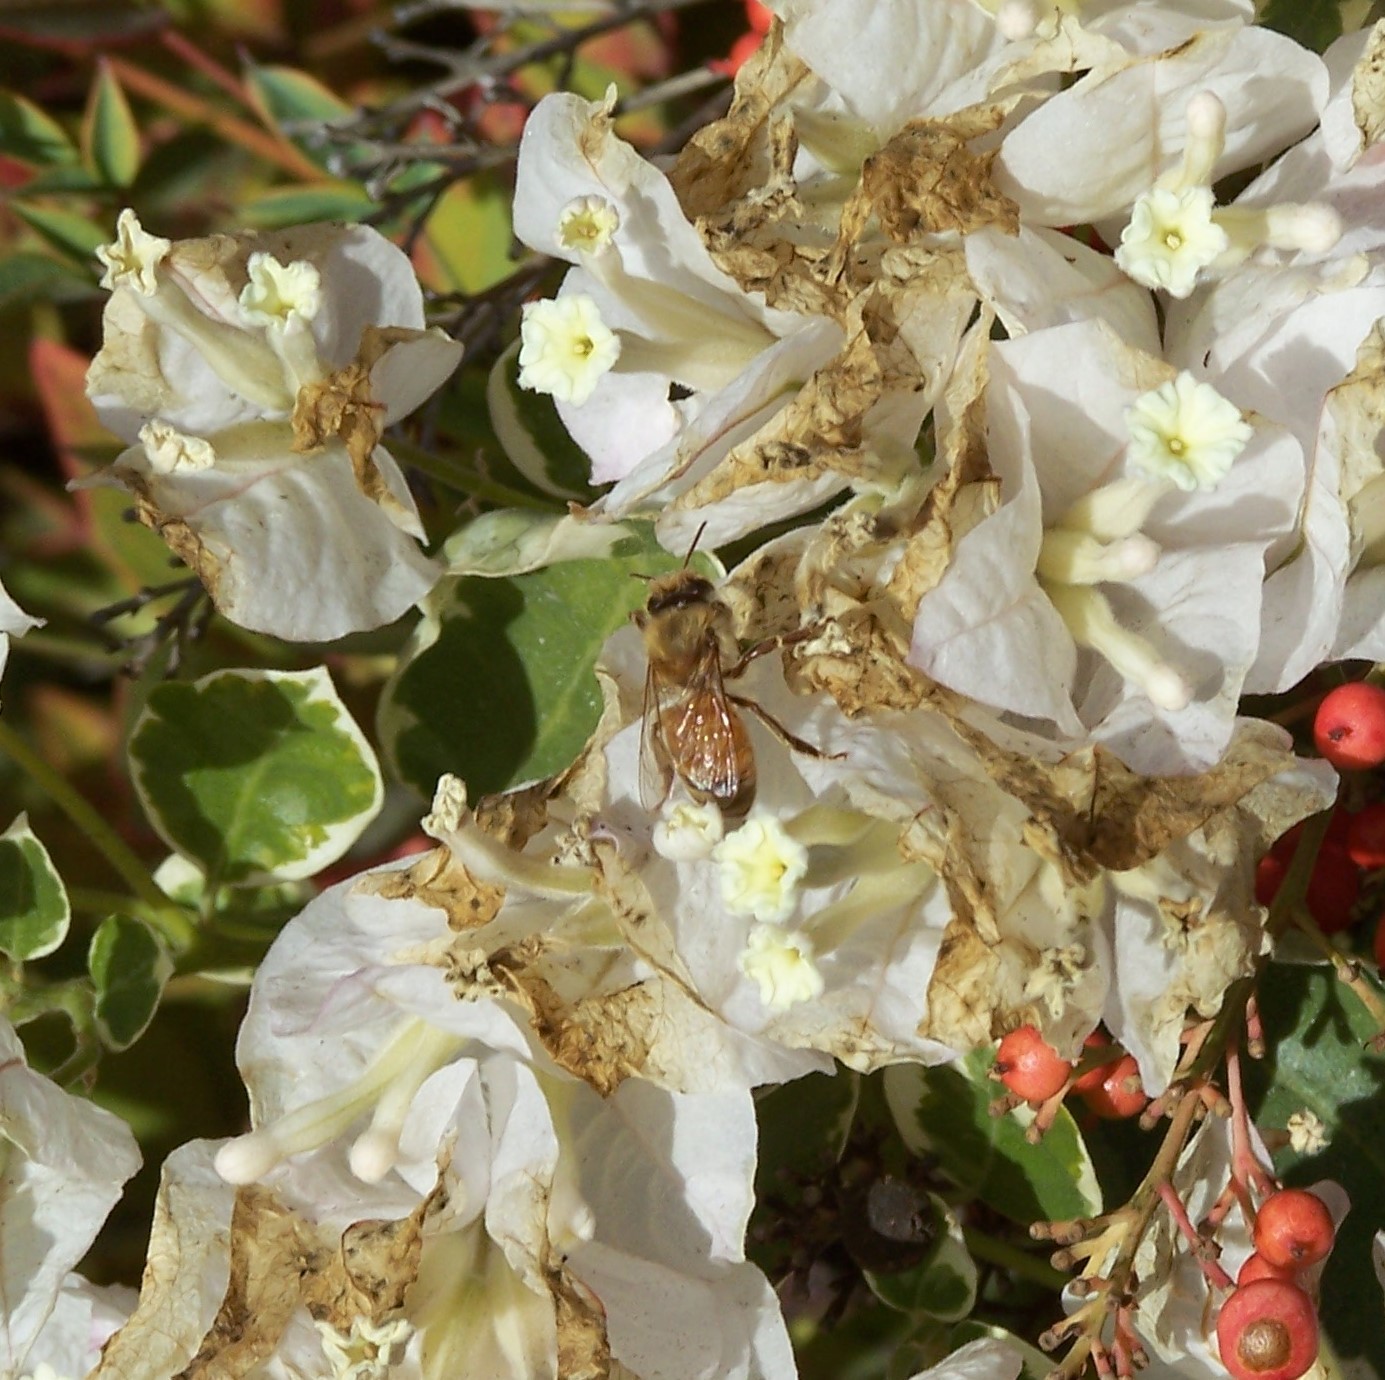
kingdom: Animalia
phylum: Arthropoda
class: Insecta
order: Hymenoptera
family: Apidae
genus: Apis
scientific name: Apis mellifera
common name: Honey bee
